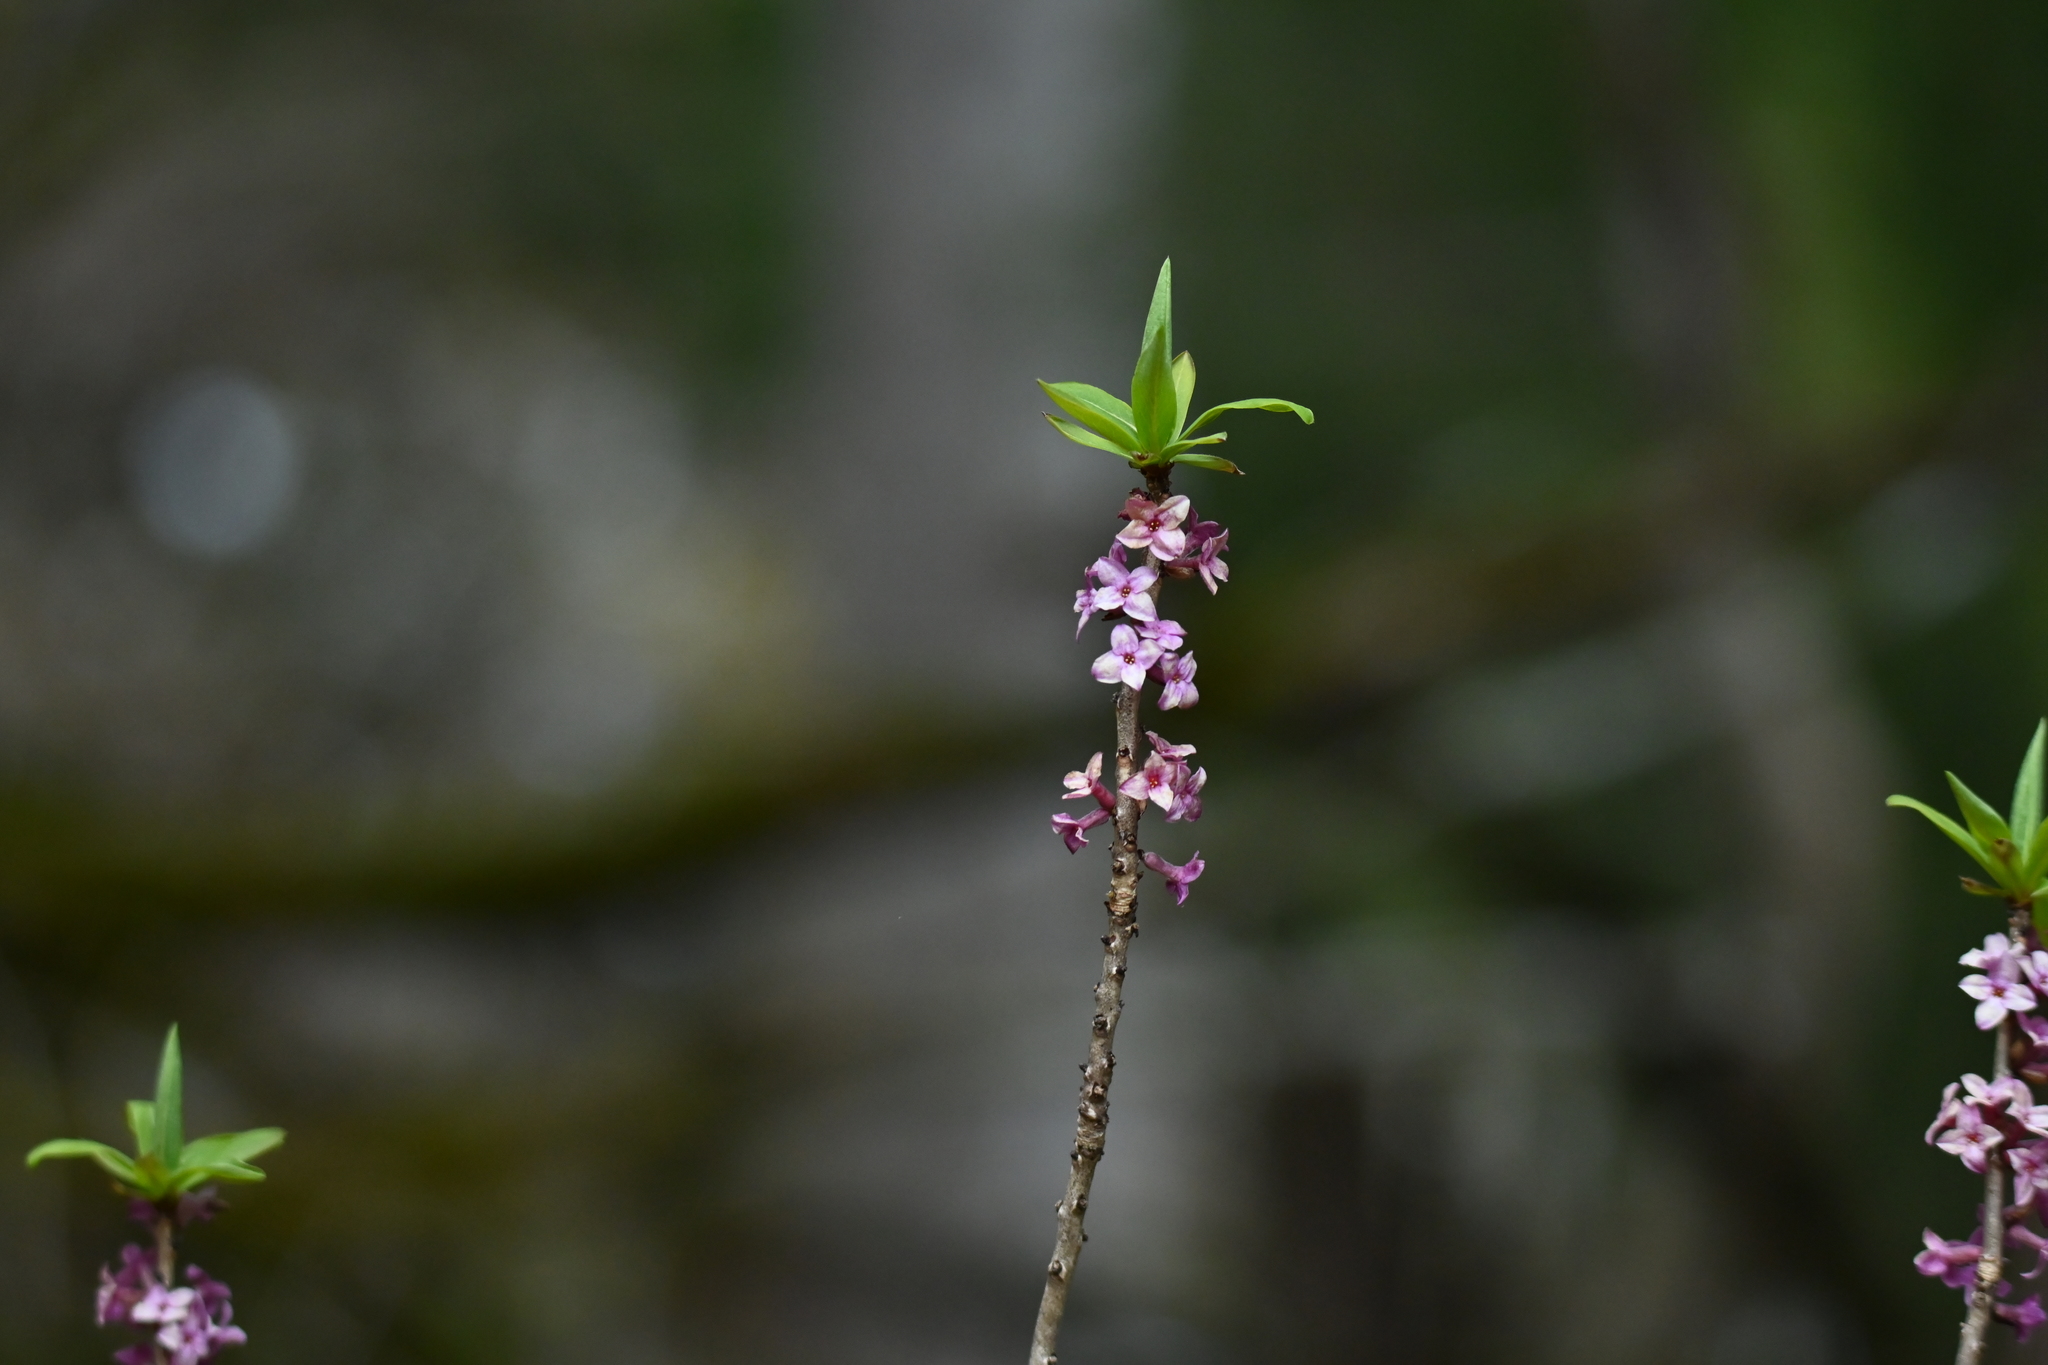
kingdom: Plantae
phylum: Tracheophyta
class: Magnoliopsida
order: Malvales
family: Thymelaeaceae
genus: Daphne
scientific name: Daphne mezereum
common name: Mezereon
